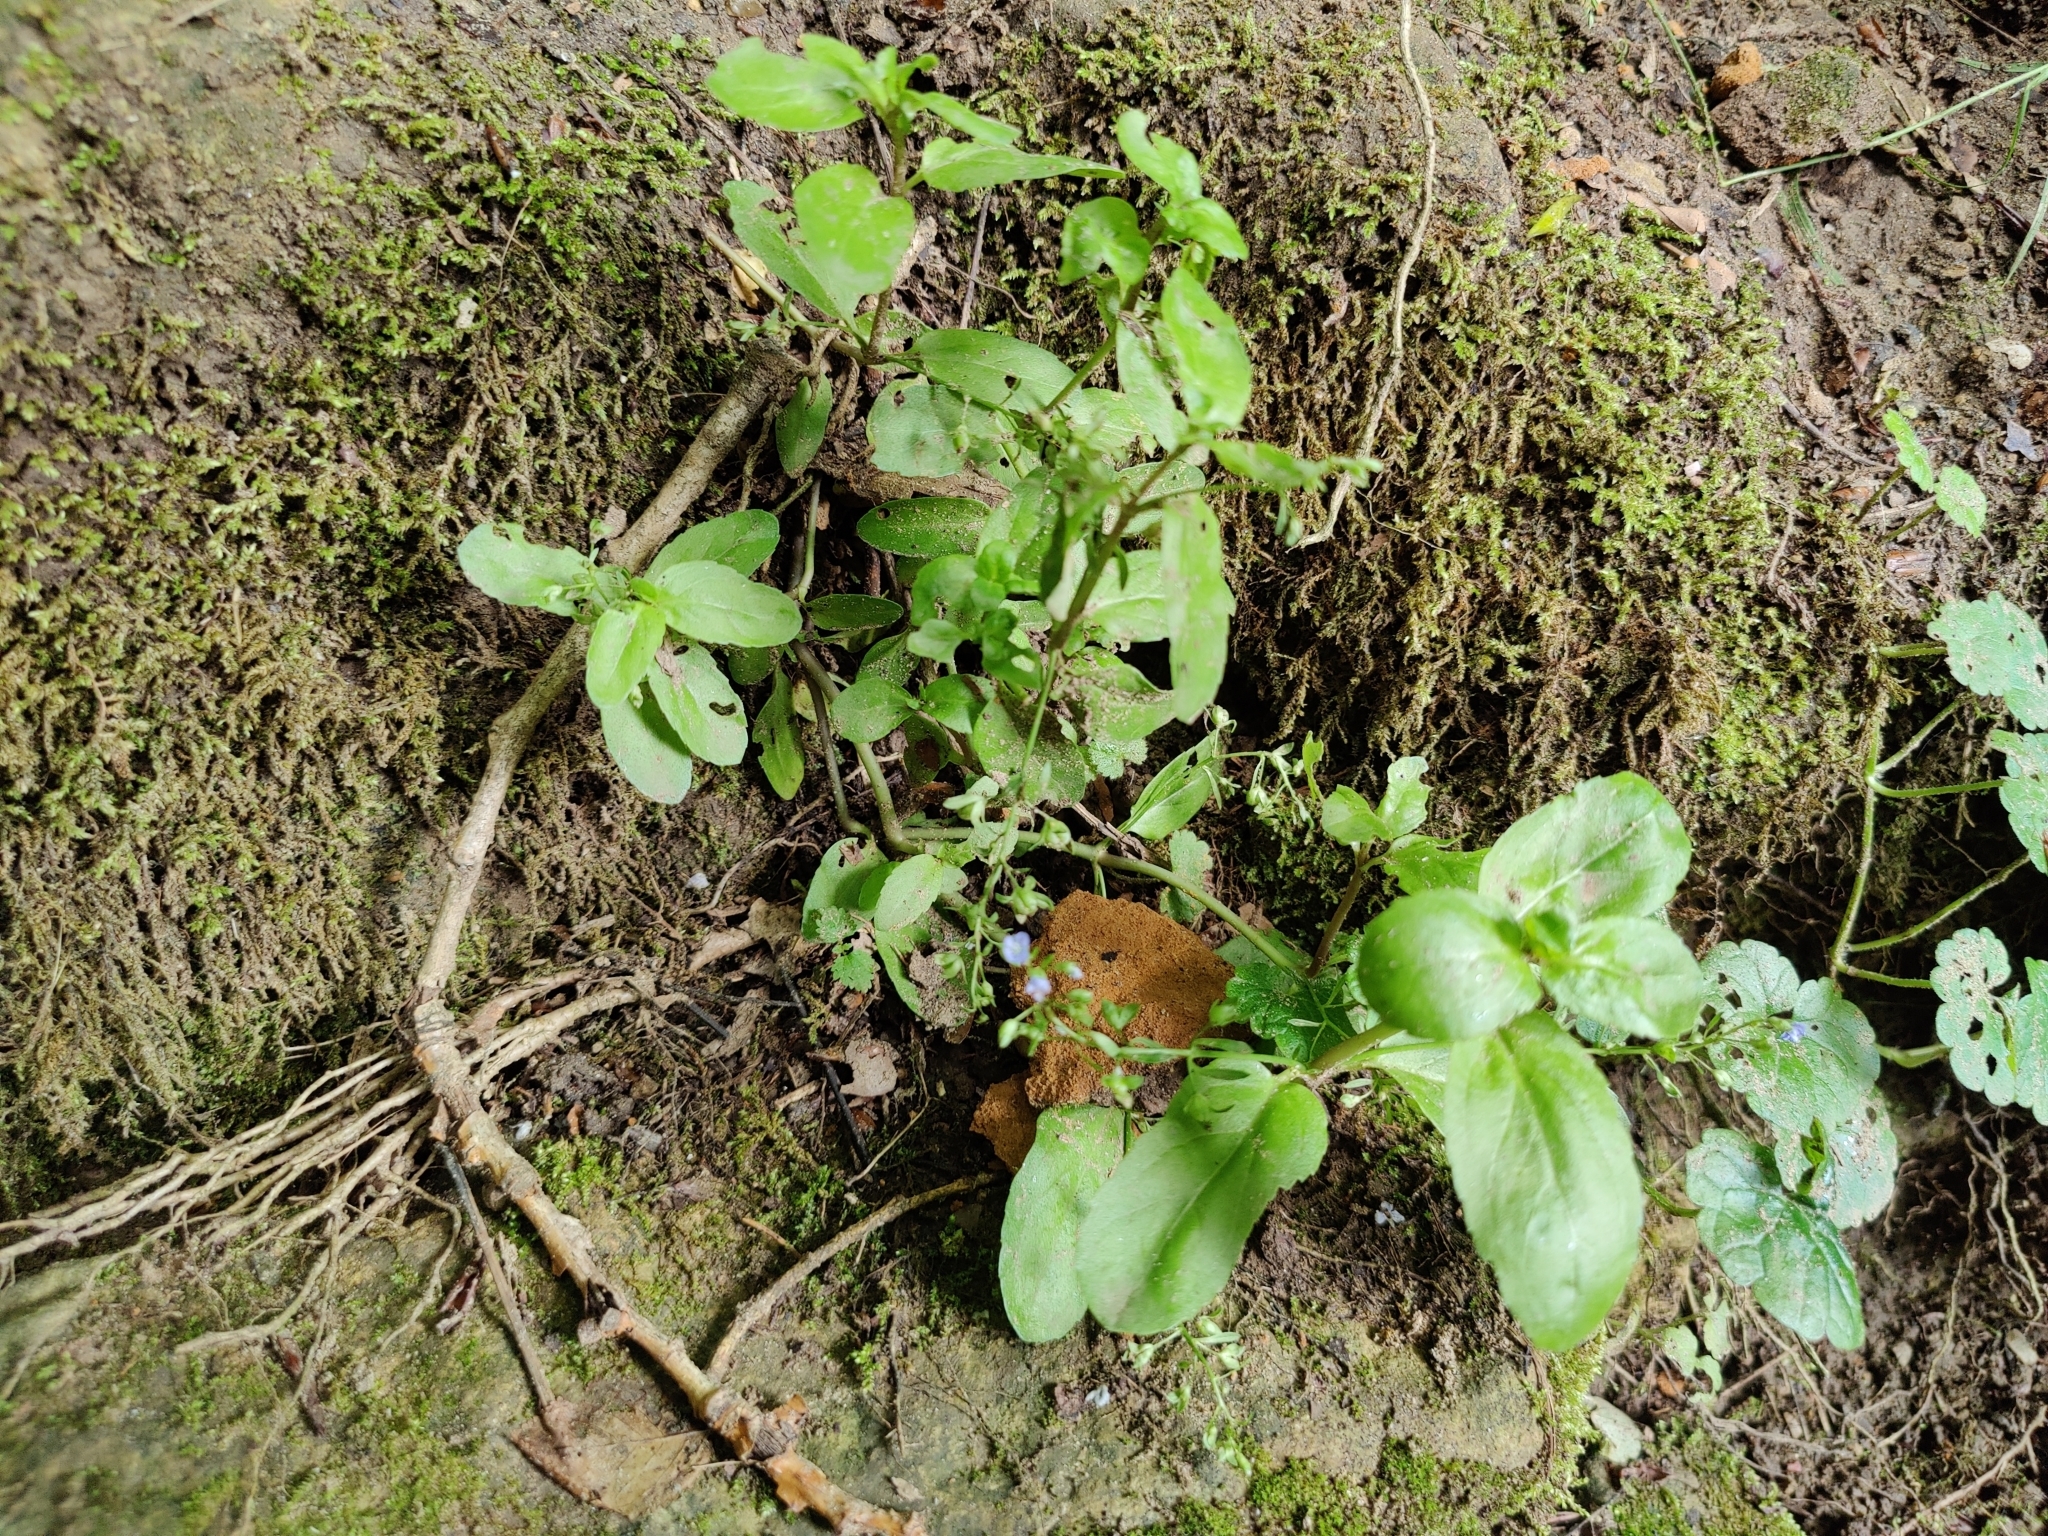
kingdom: Plantae
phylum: Tracheophyta
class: Magnoliopsida
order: Lamiales
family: Plantaginaceae
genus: Veronica
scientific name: Veronica beccabunga
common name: Brooklime
